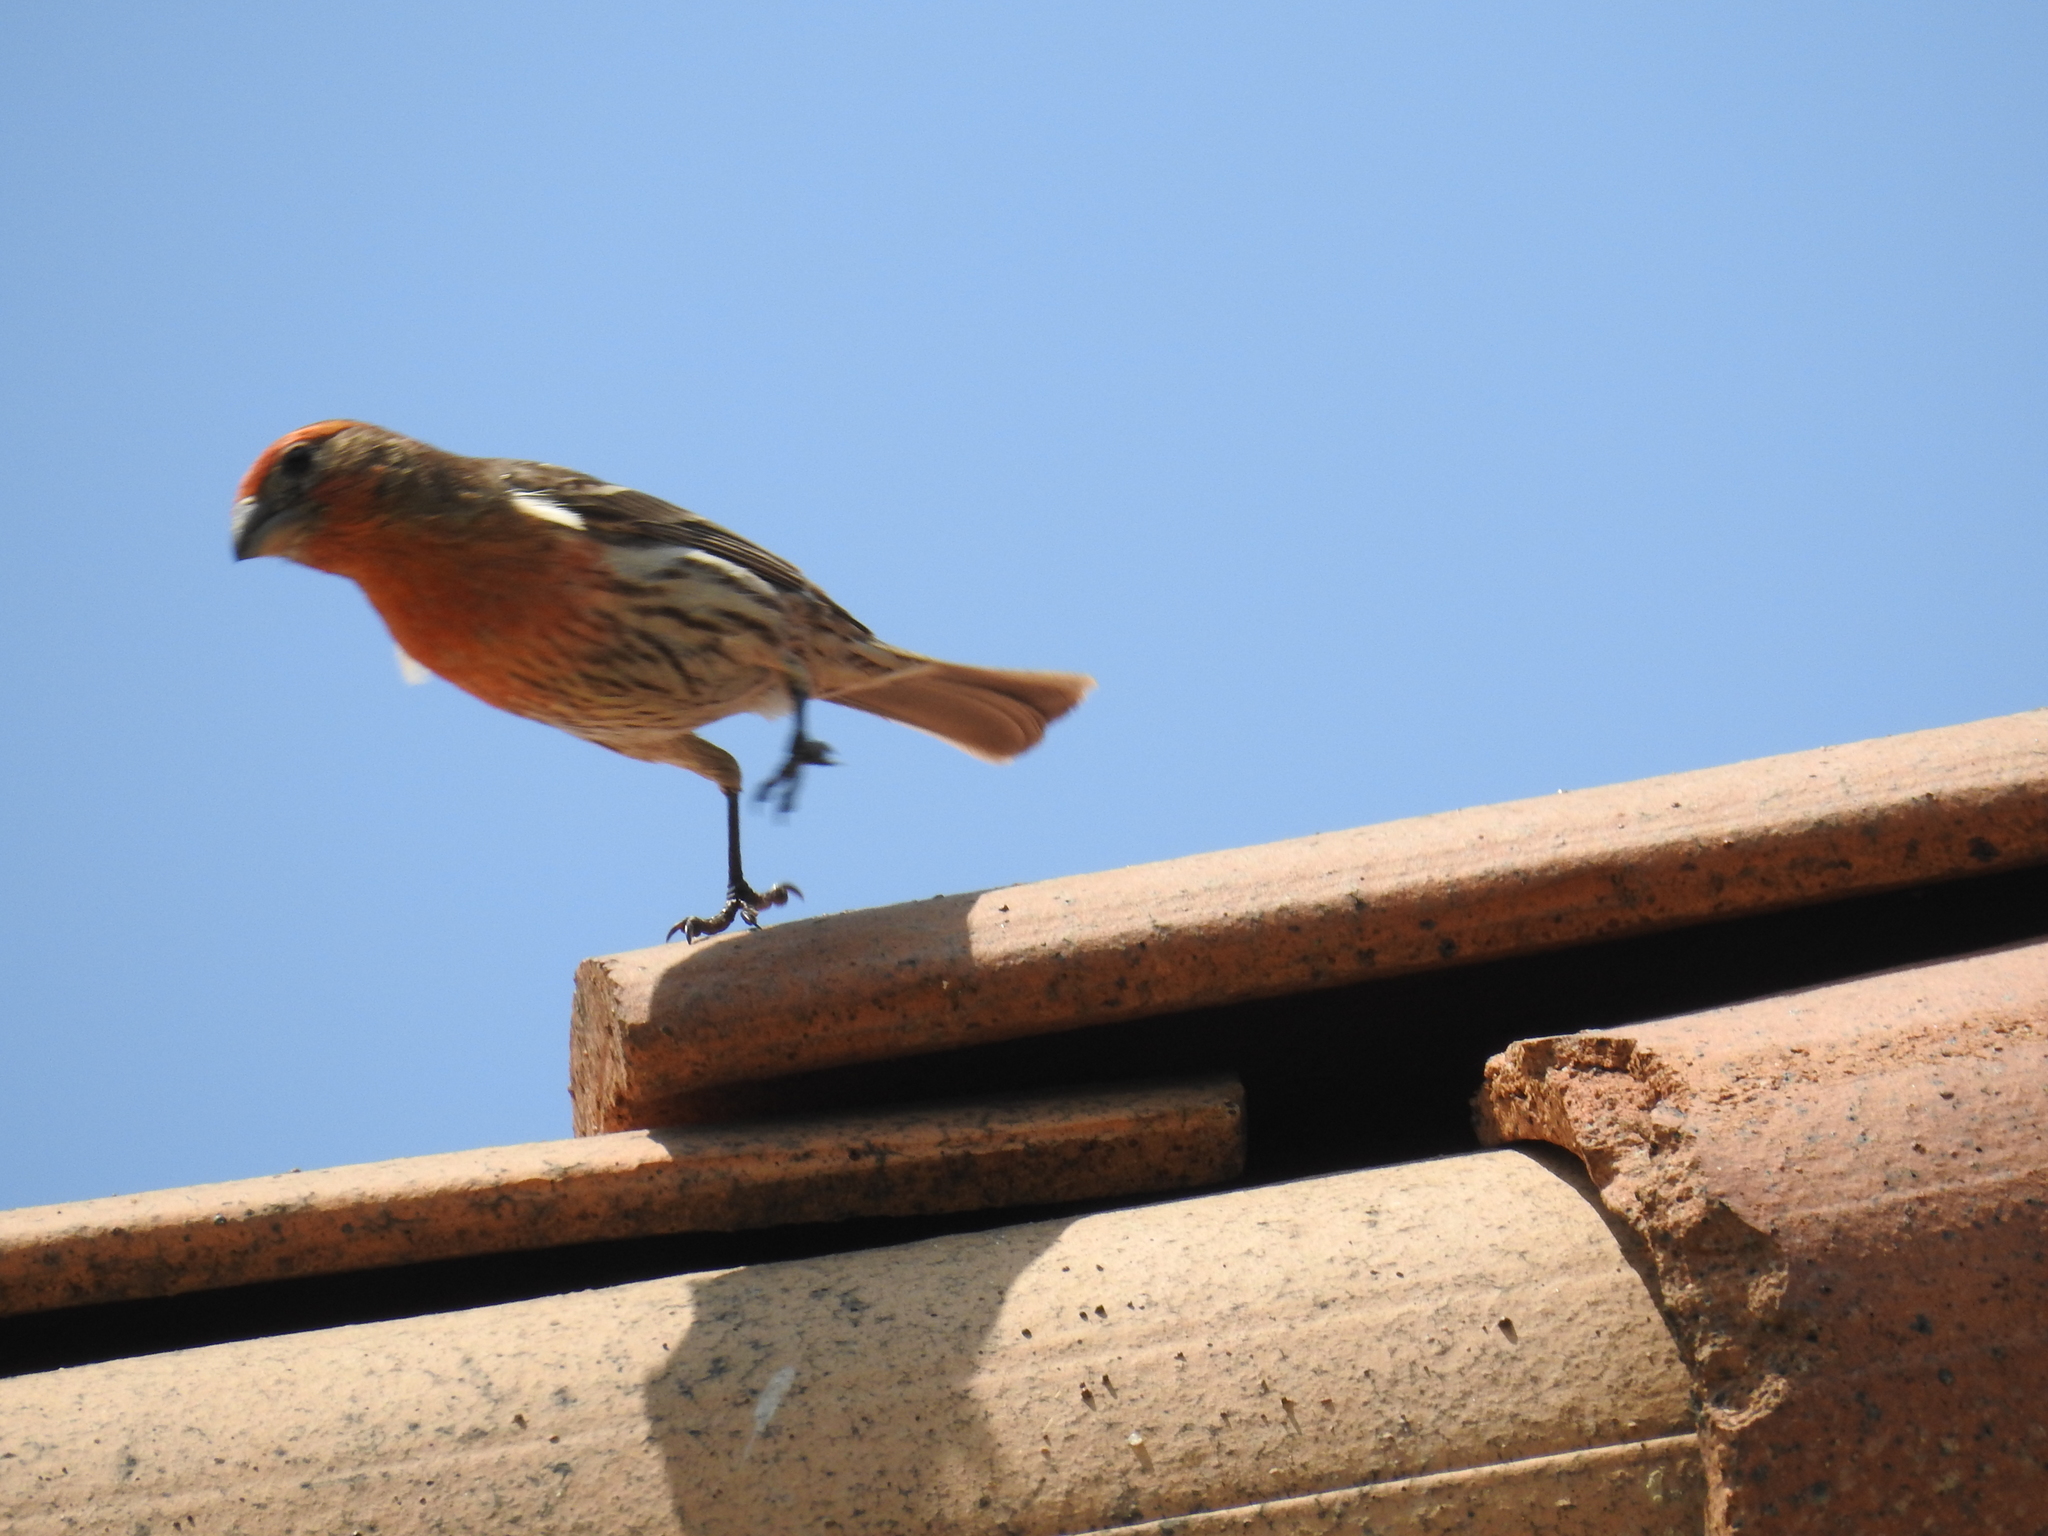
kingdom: Animalia
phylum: Chordata
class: Aves
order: Passeriformes
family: Fringillidae
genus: Haemorhous
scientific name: Haemorhous mexicanus
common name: House finch
